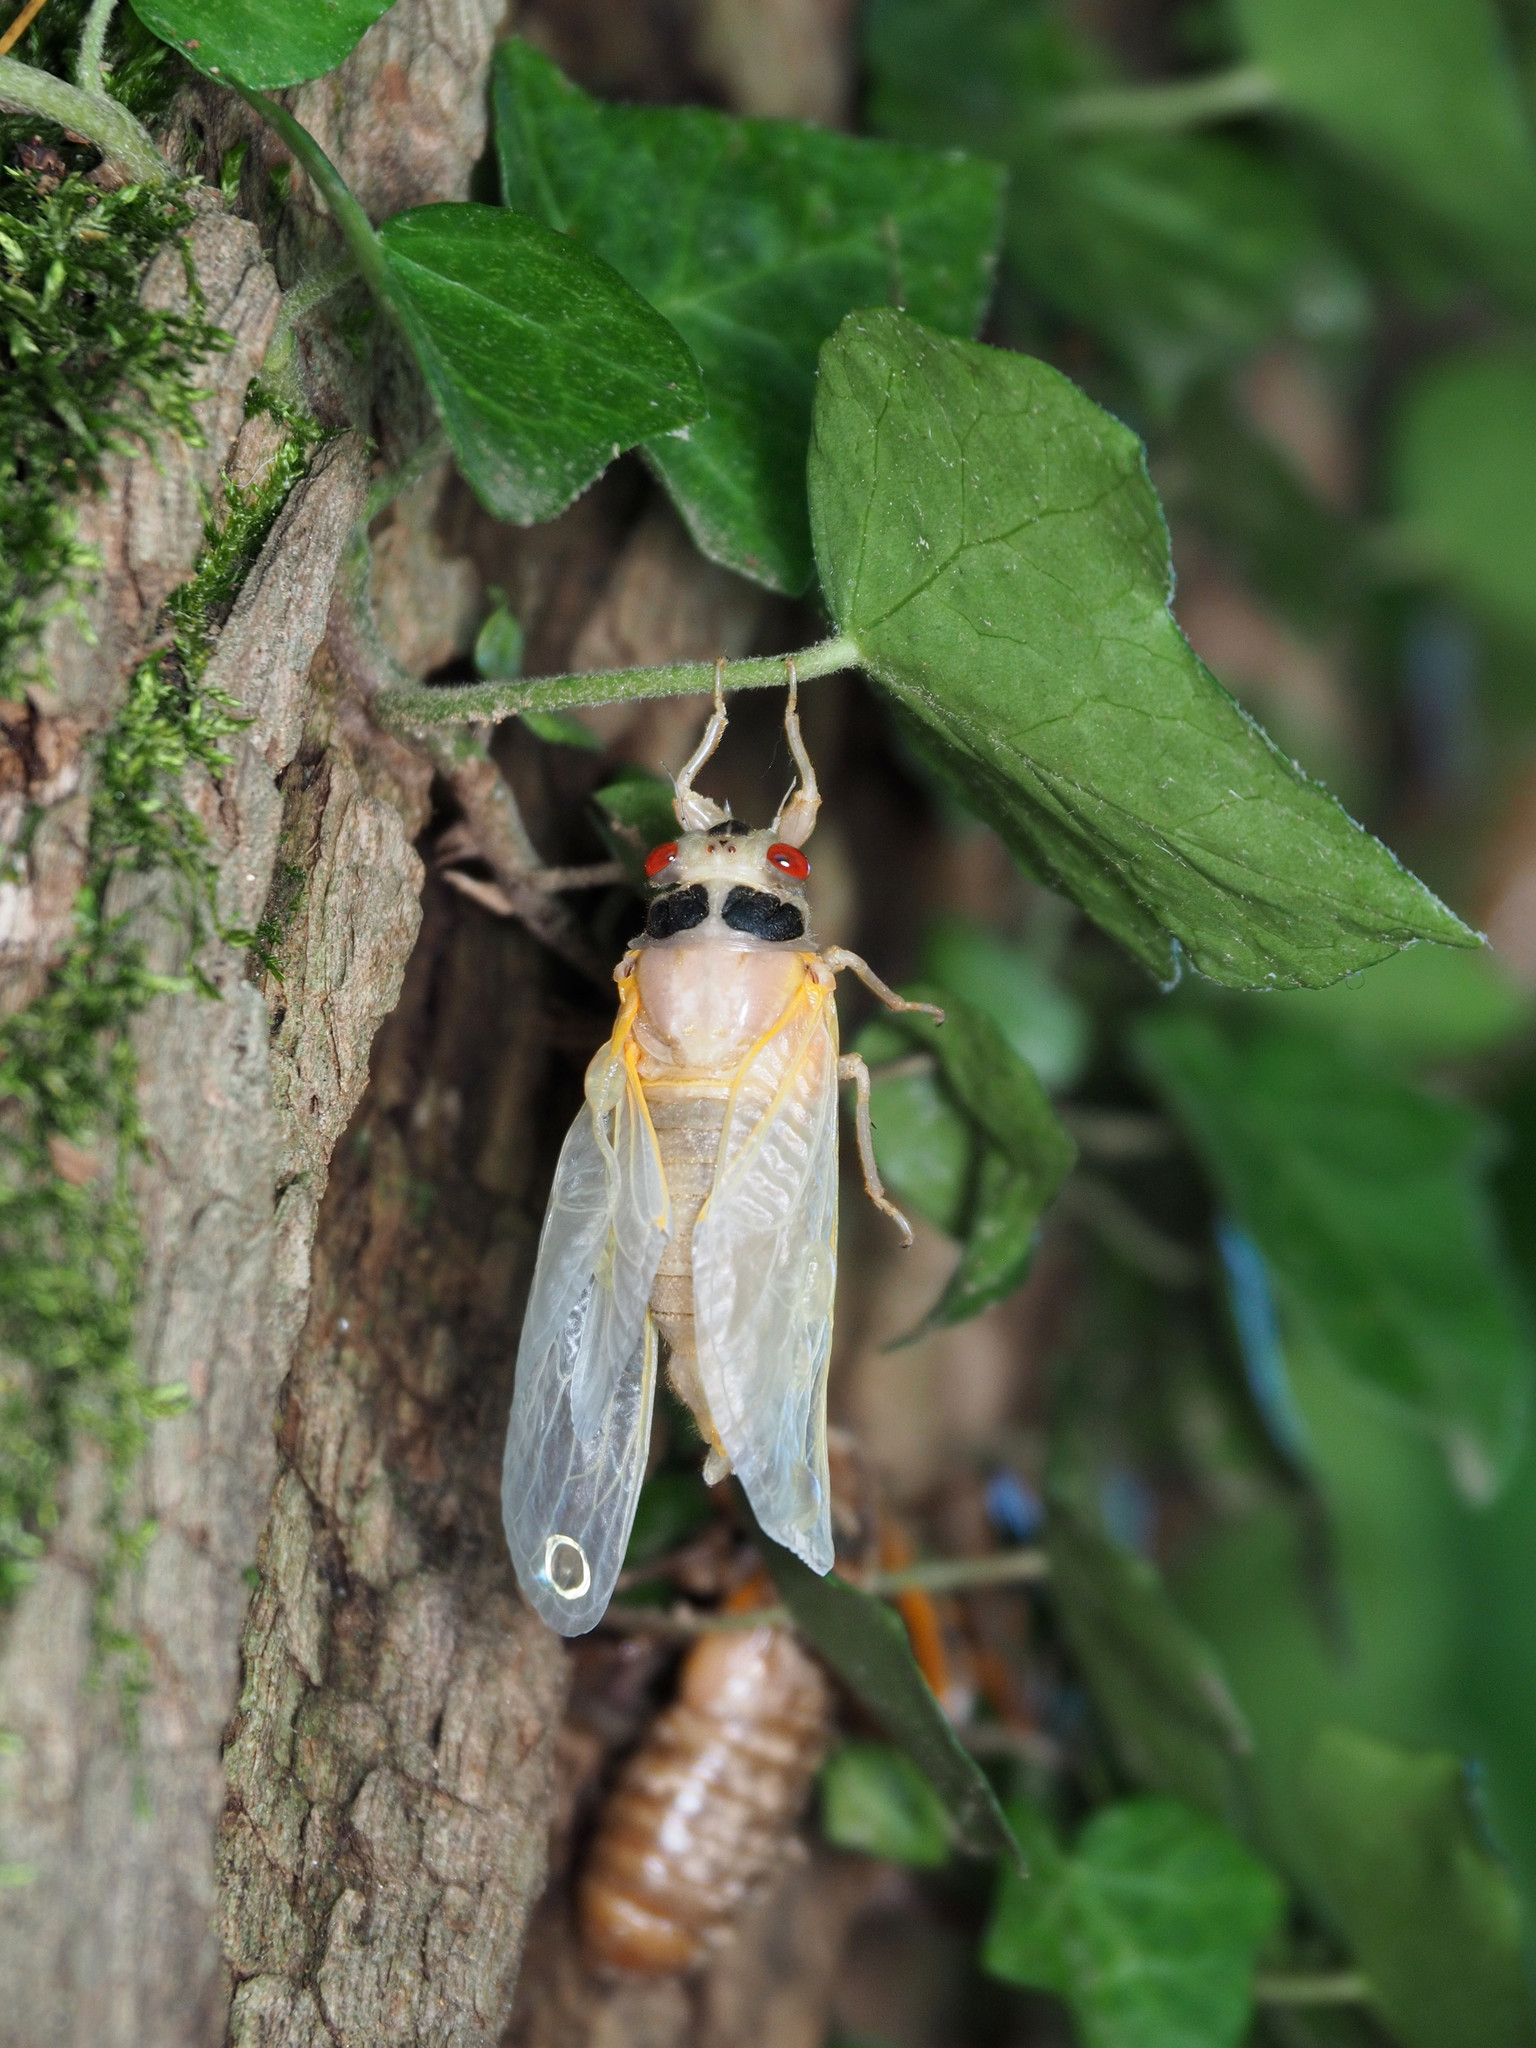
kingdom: Animalia
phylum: Arthropoda
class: Insecta
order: Hemiptera
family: Cicadidae
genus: Magicicada
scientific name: Magicicada
